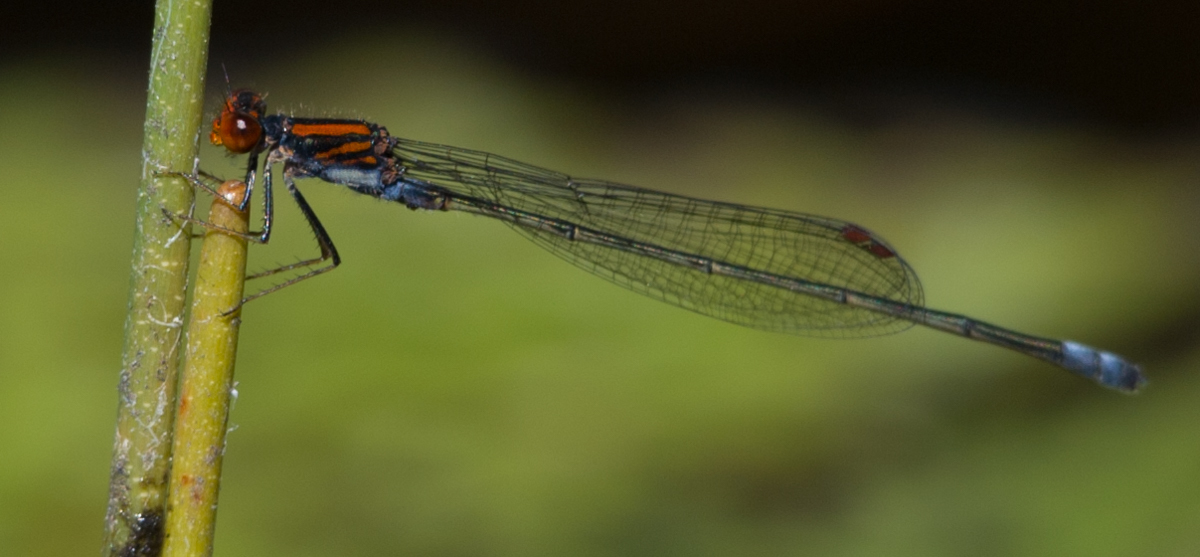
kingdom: Animalia
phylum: Arthropoda
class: Insecta
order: Odonata
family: Coenagrionidae
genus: Pseudagrion
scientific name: Pseudagrion rufostigma
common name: Dark sprite
